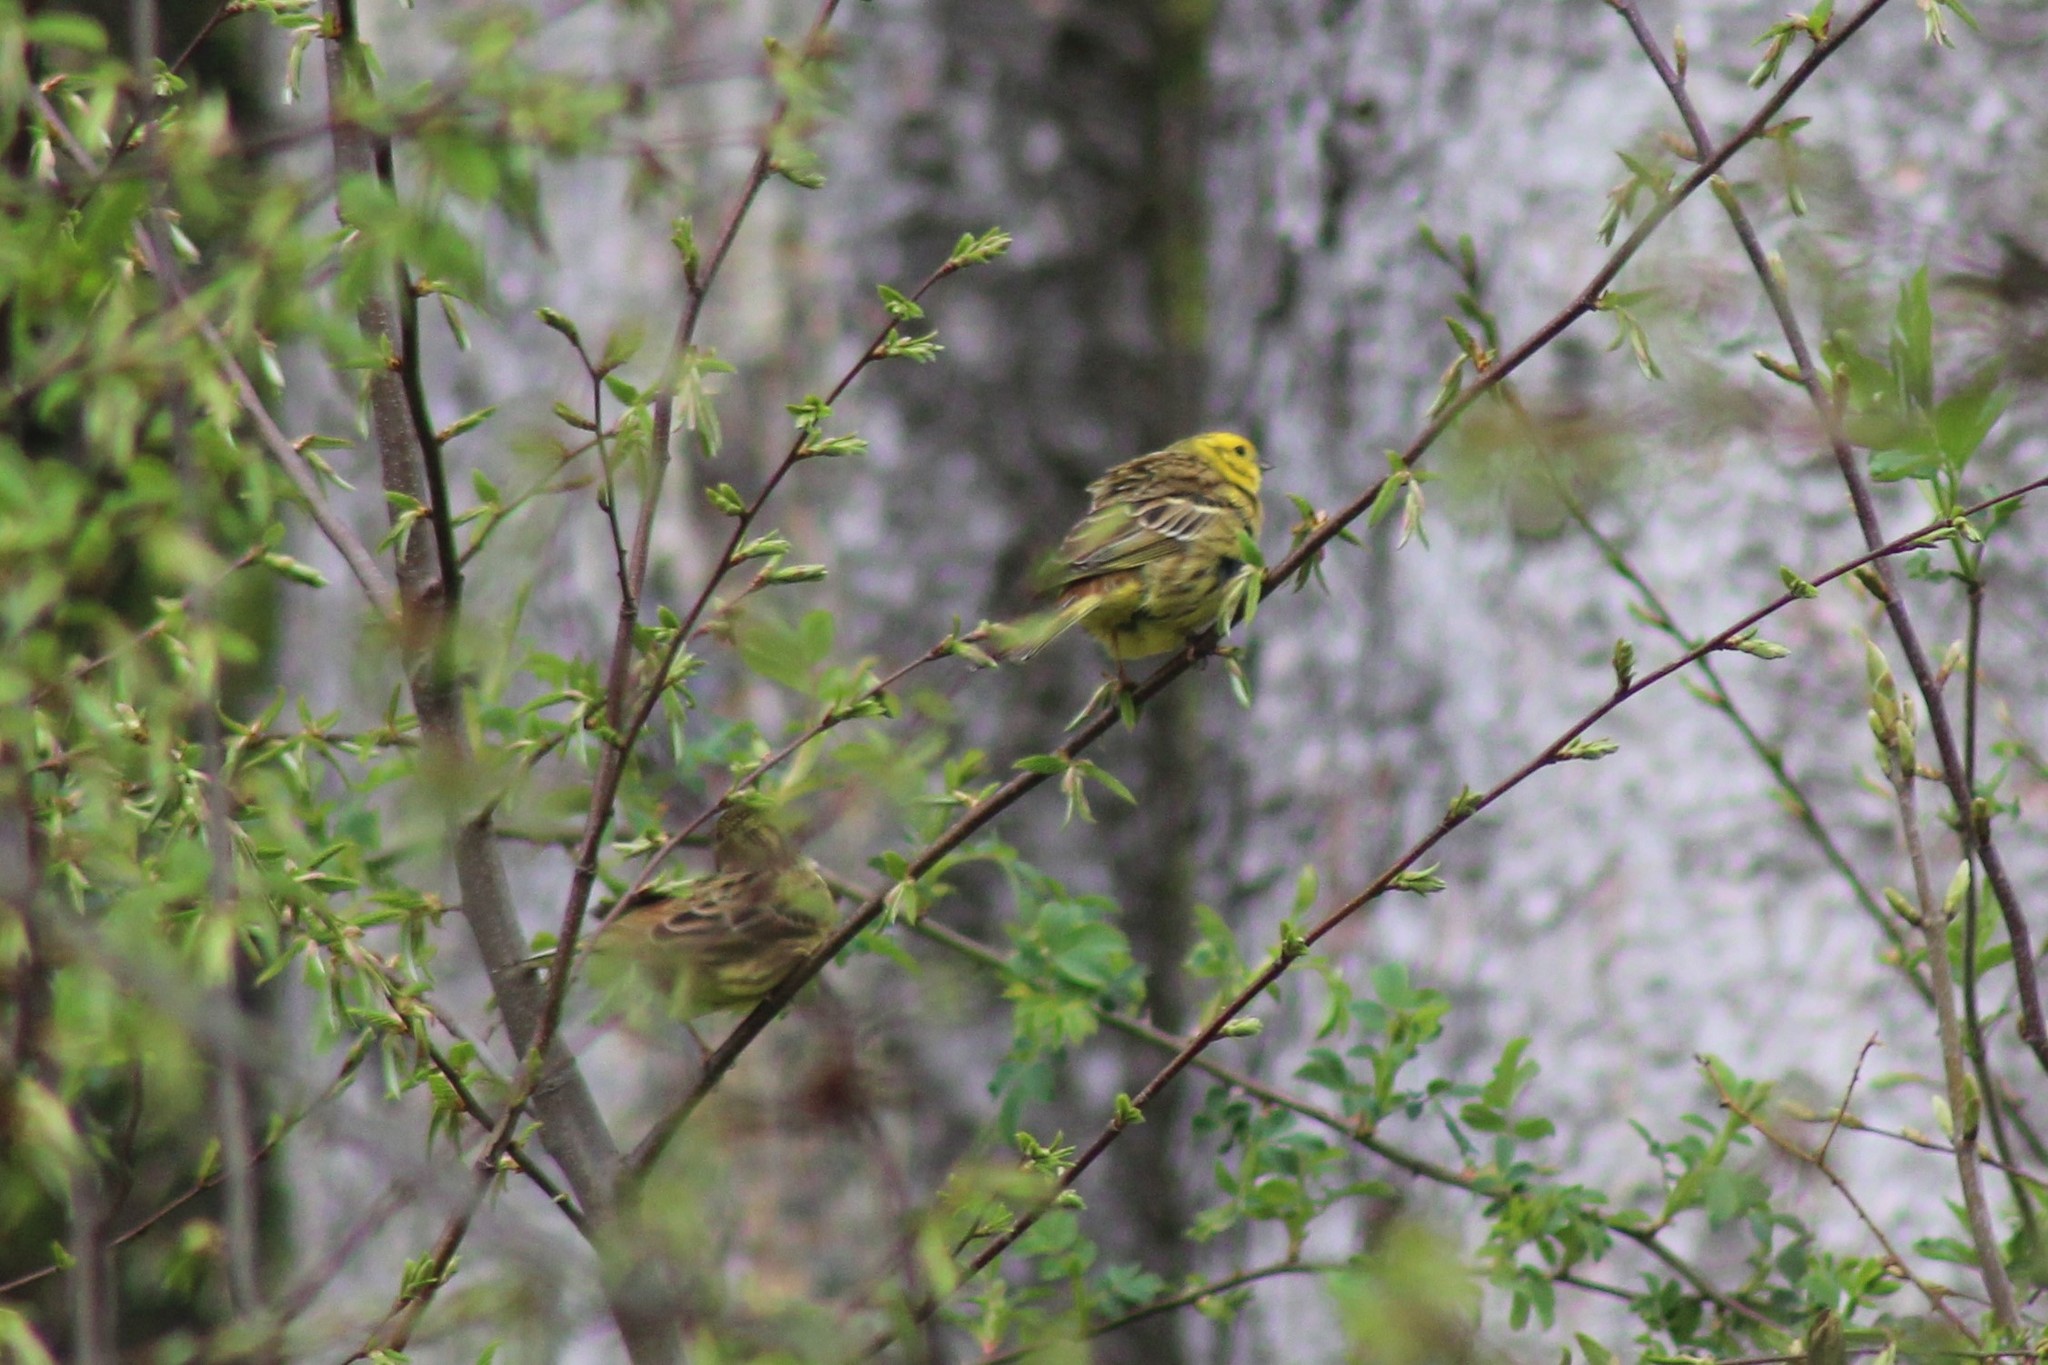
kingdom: Animalia
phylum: Chordata
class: Aves
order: Passeriformes
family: Emberizidae
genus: Emberiza
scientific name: Emberiza citrinella
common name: Yellowhammer
